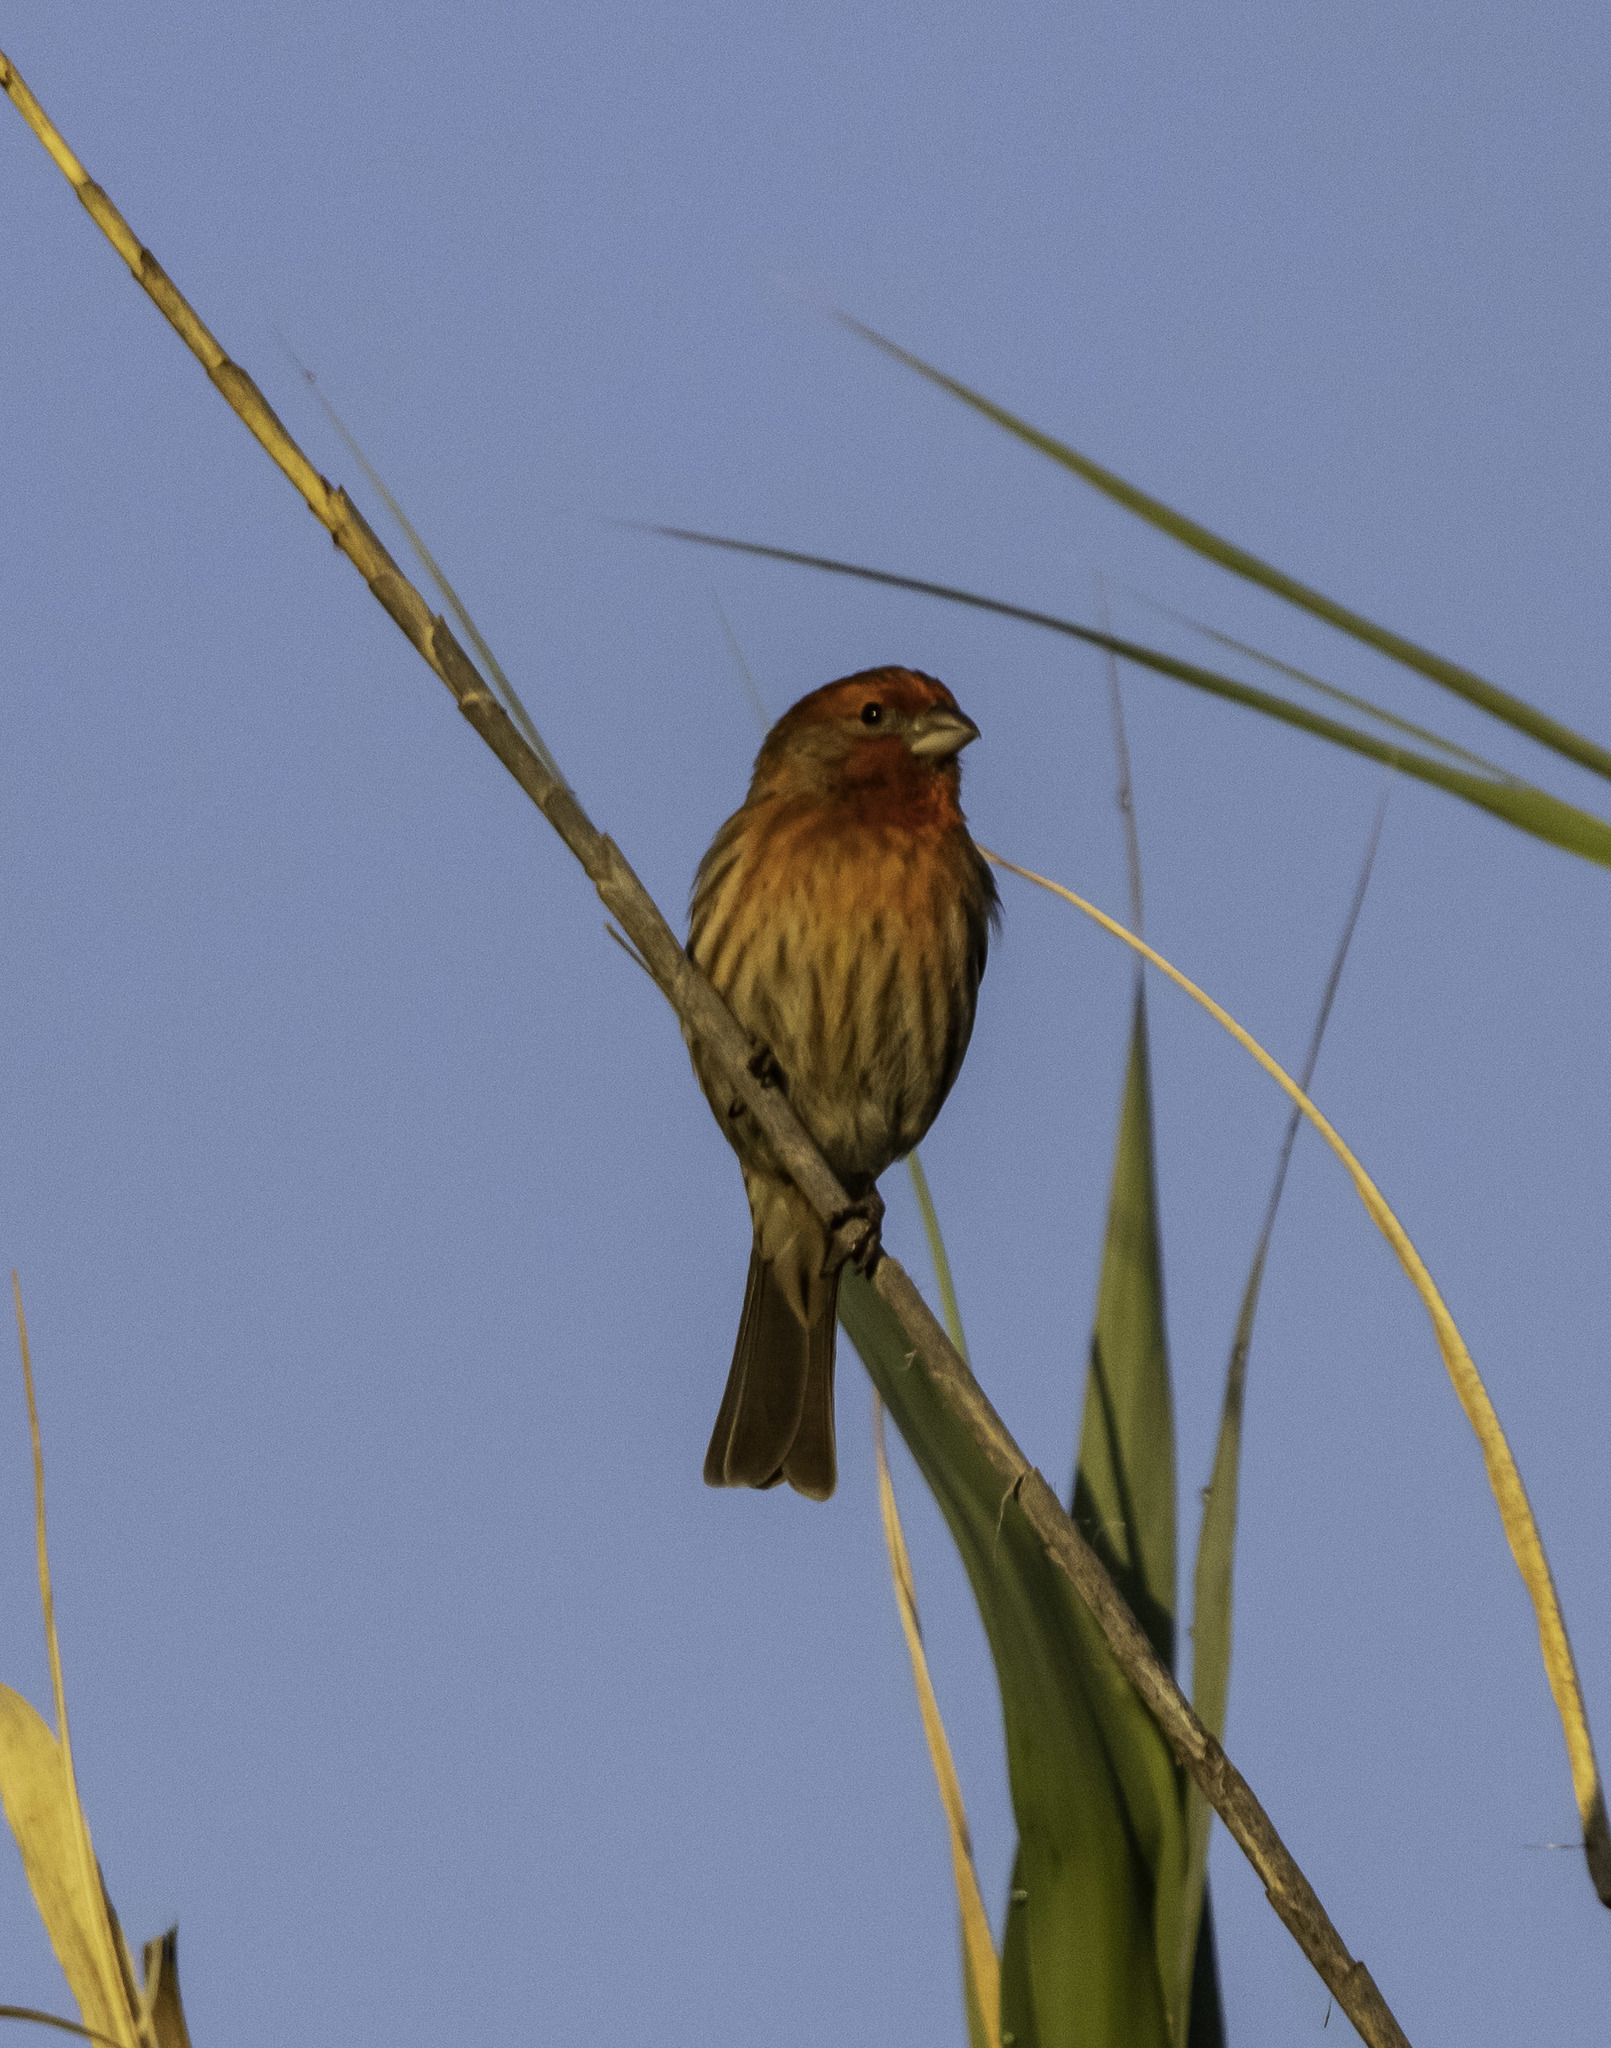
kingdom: Animalia
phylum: Chordata
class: Aves
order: Passeriformes
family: Fringillidae
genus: Haemorhous
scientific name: Haemorhous mexicanus
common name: House finch
